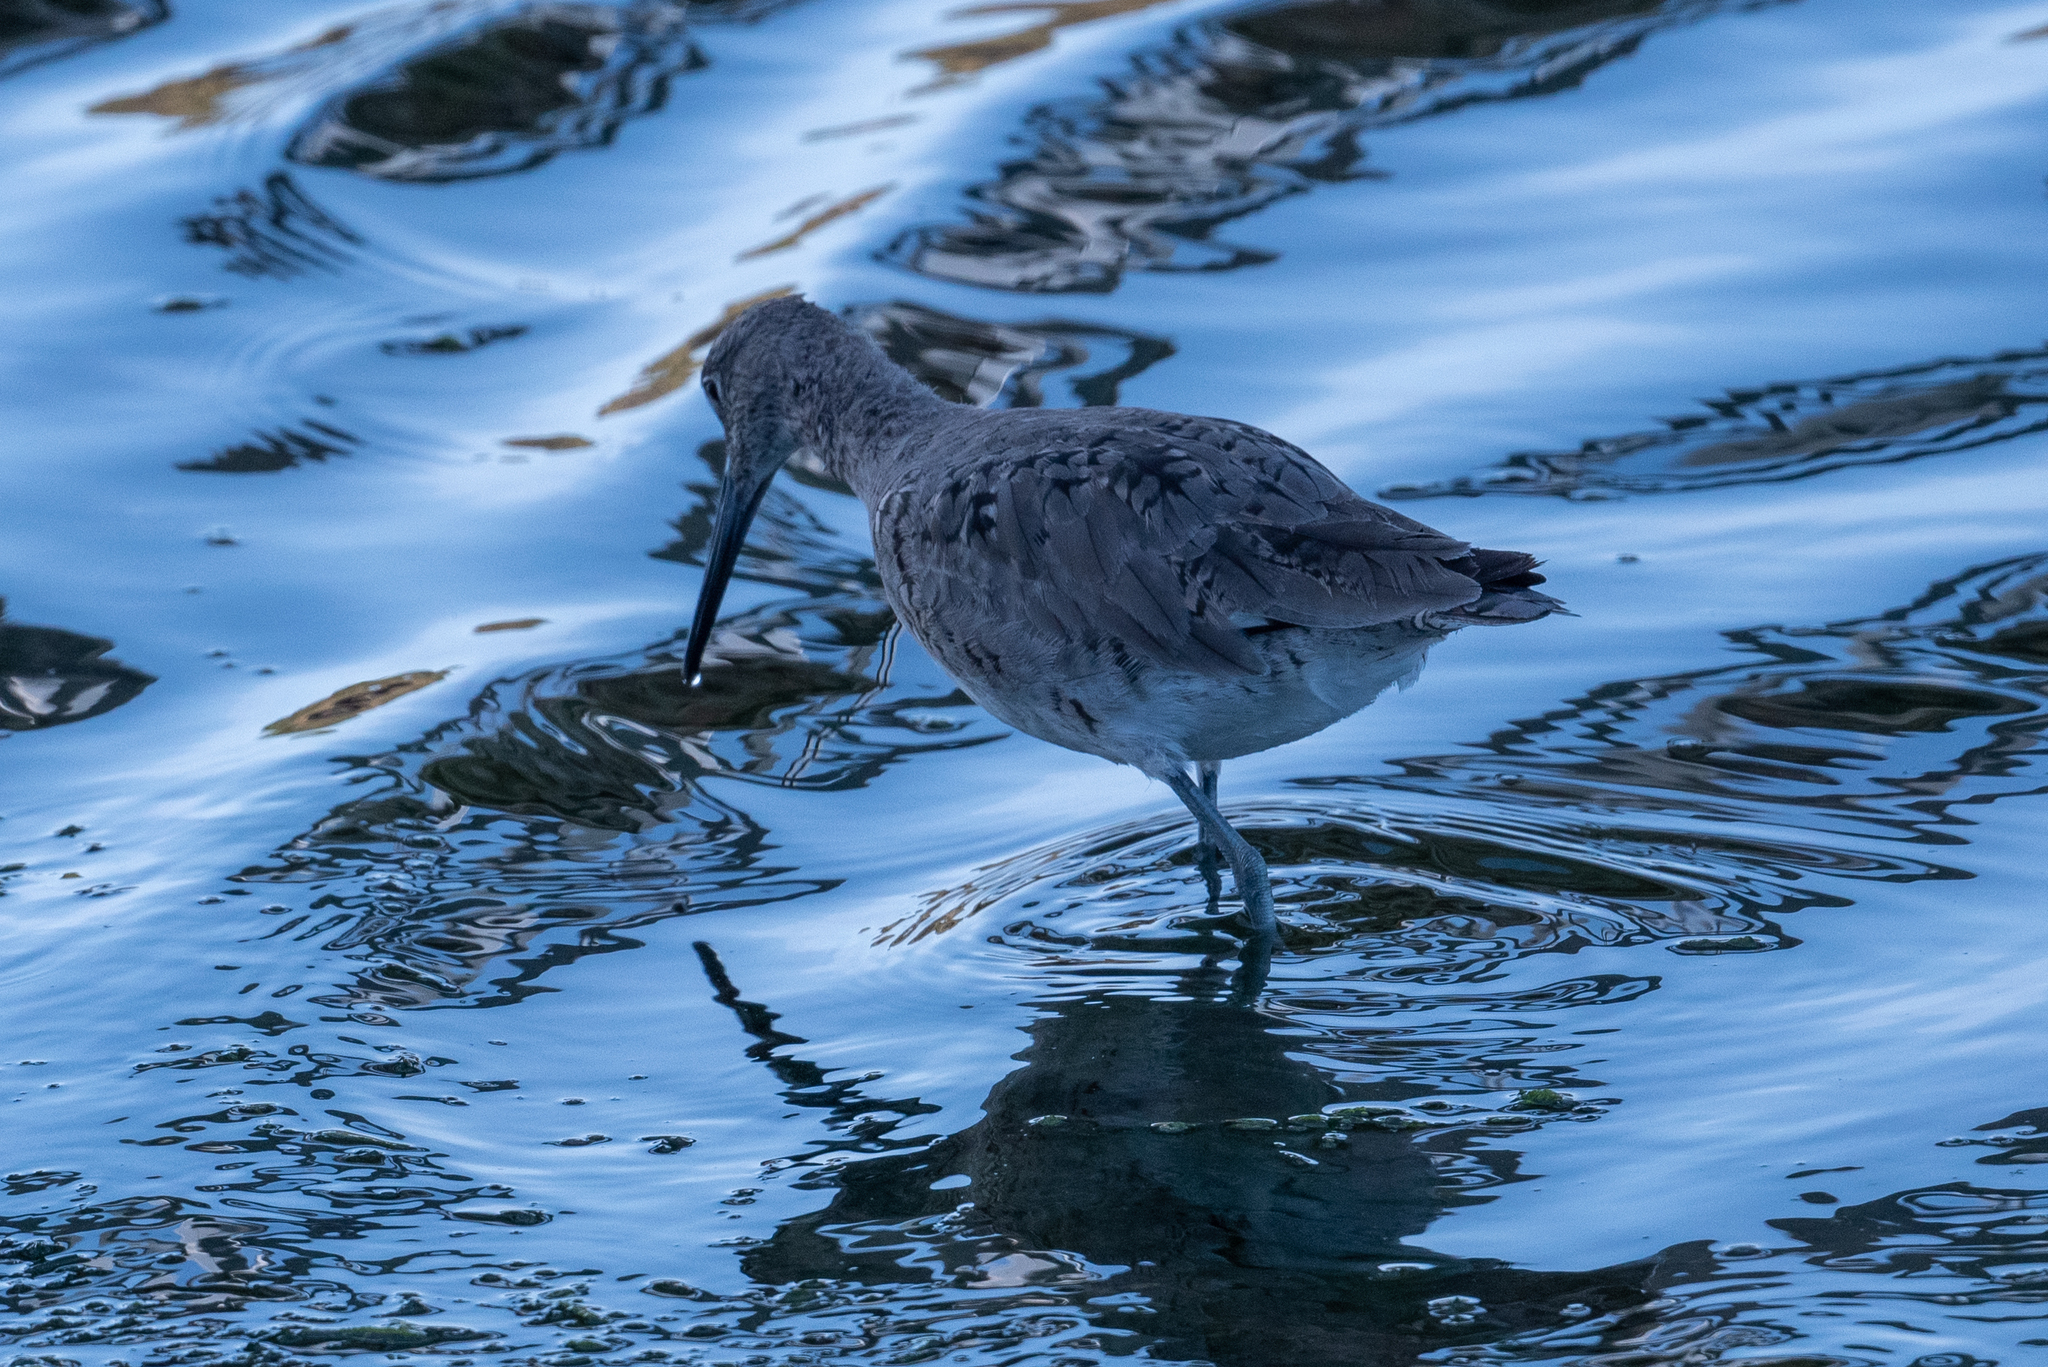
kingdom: Animalia
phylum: Chordata
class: Aves
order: Charadriiformes
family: Scolopacidae
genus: Tringa
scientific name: Tringa semipalmata
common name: Willet
